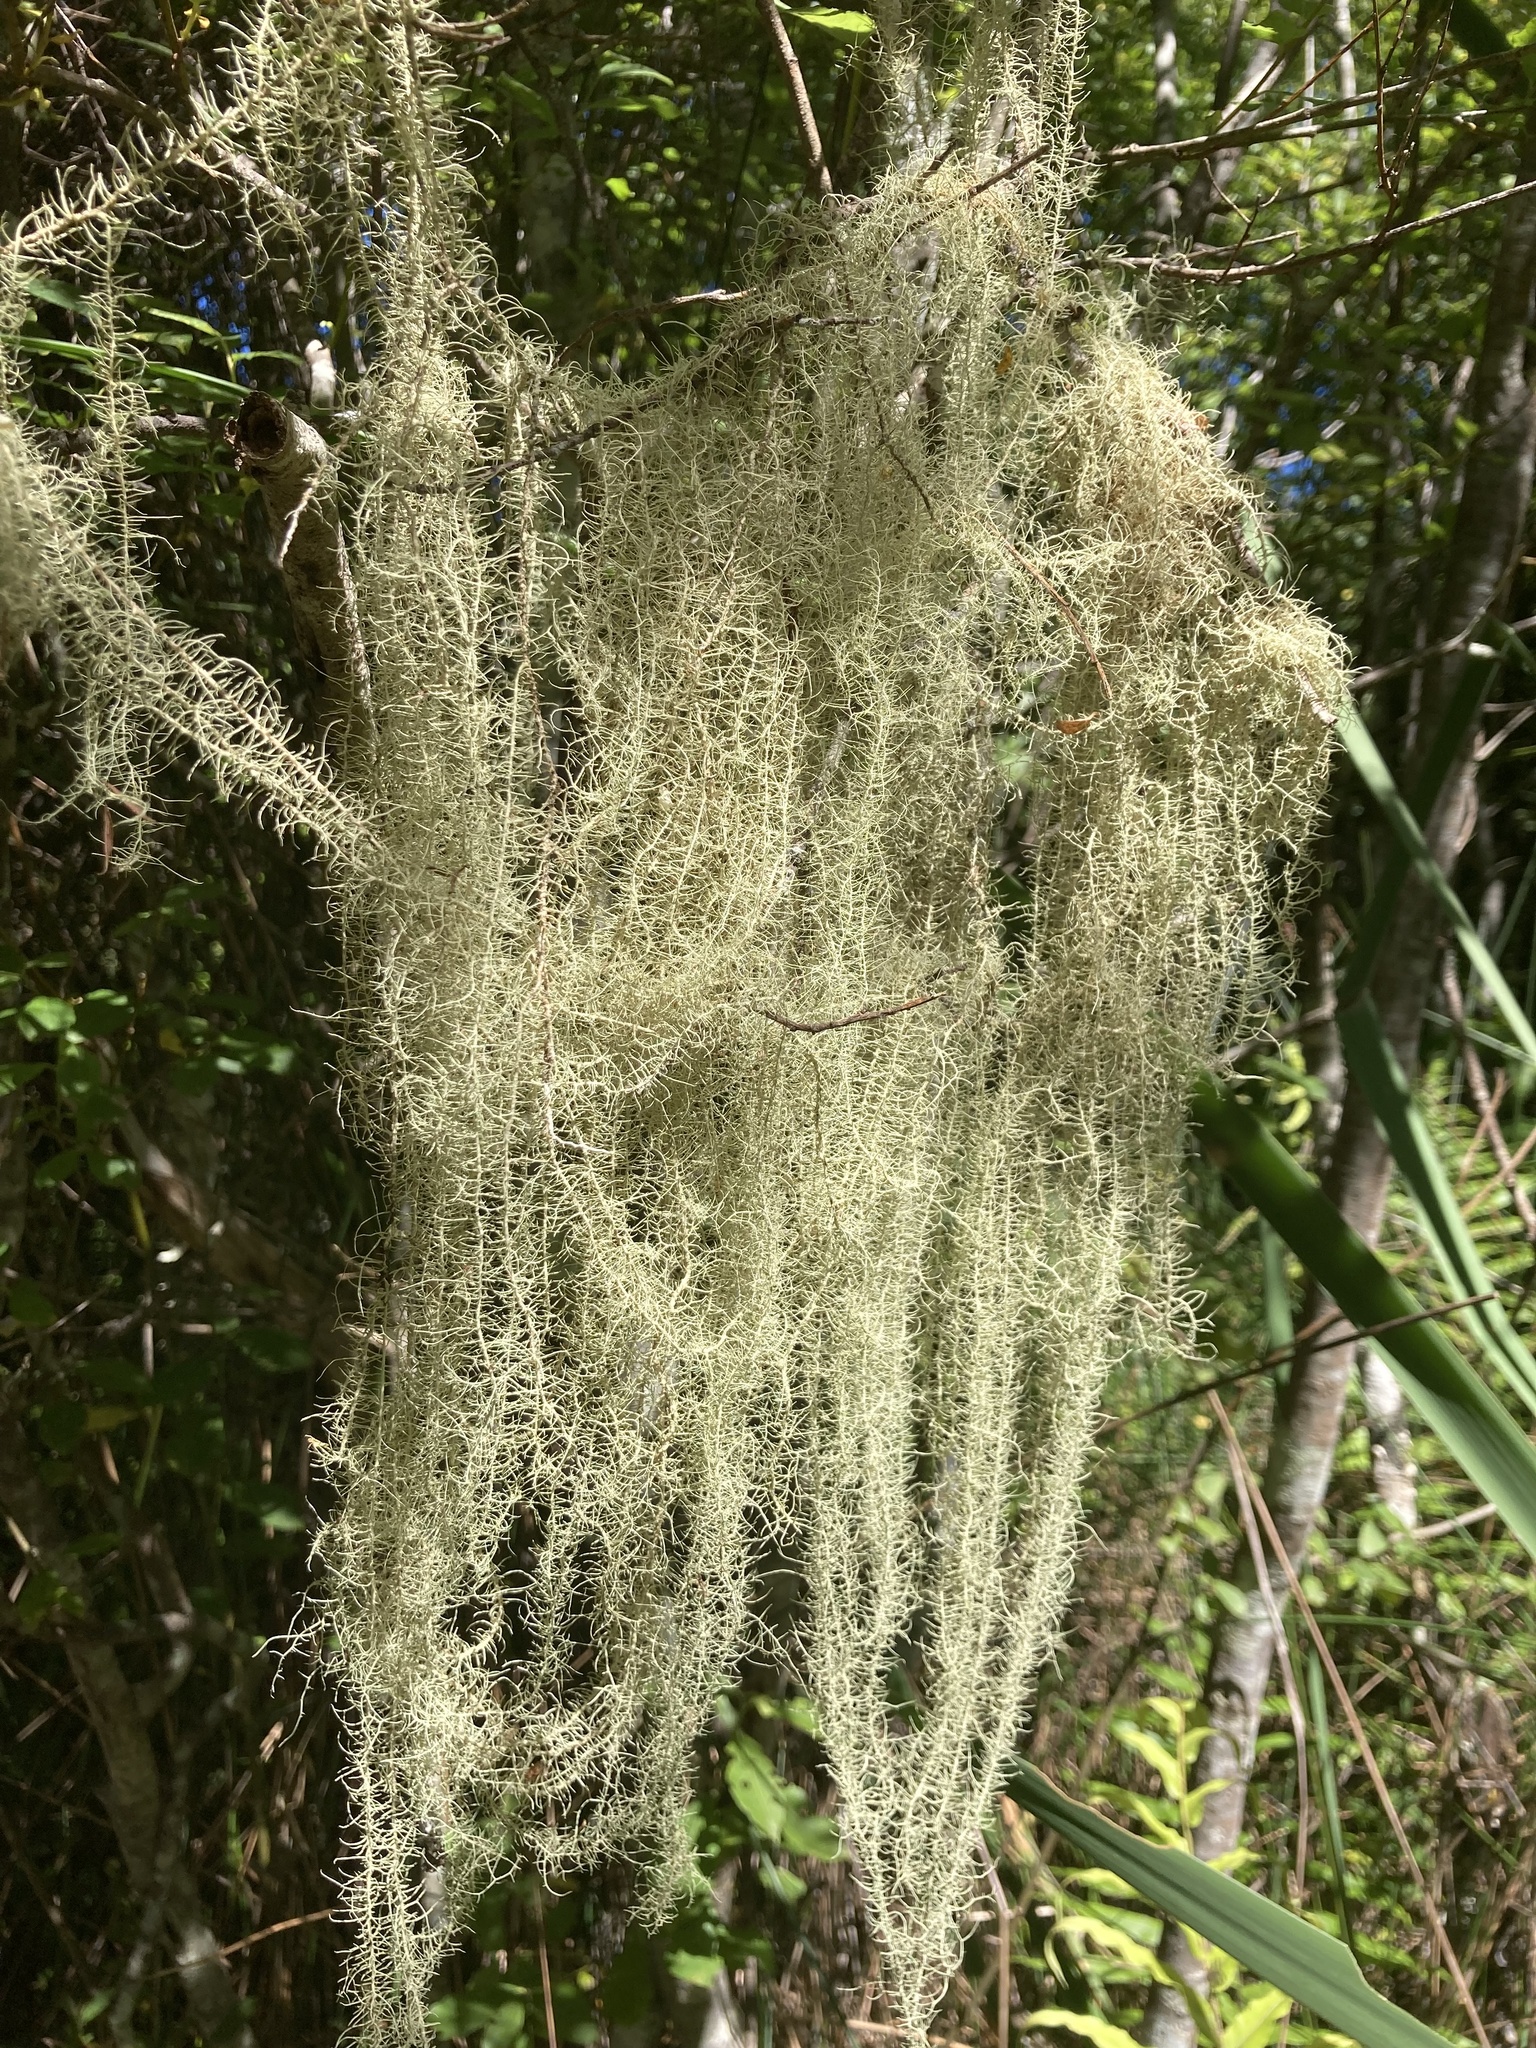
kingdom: Fungi
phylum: Ascomycota
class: Lecanoromycetes
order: Lecanorales
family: Parmeliaceae
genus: Usnea
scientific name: Usnea angulata
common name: Old-man’s beard lichen
